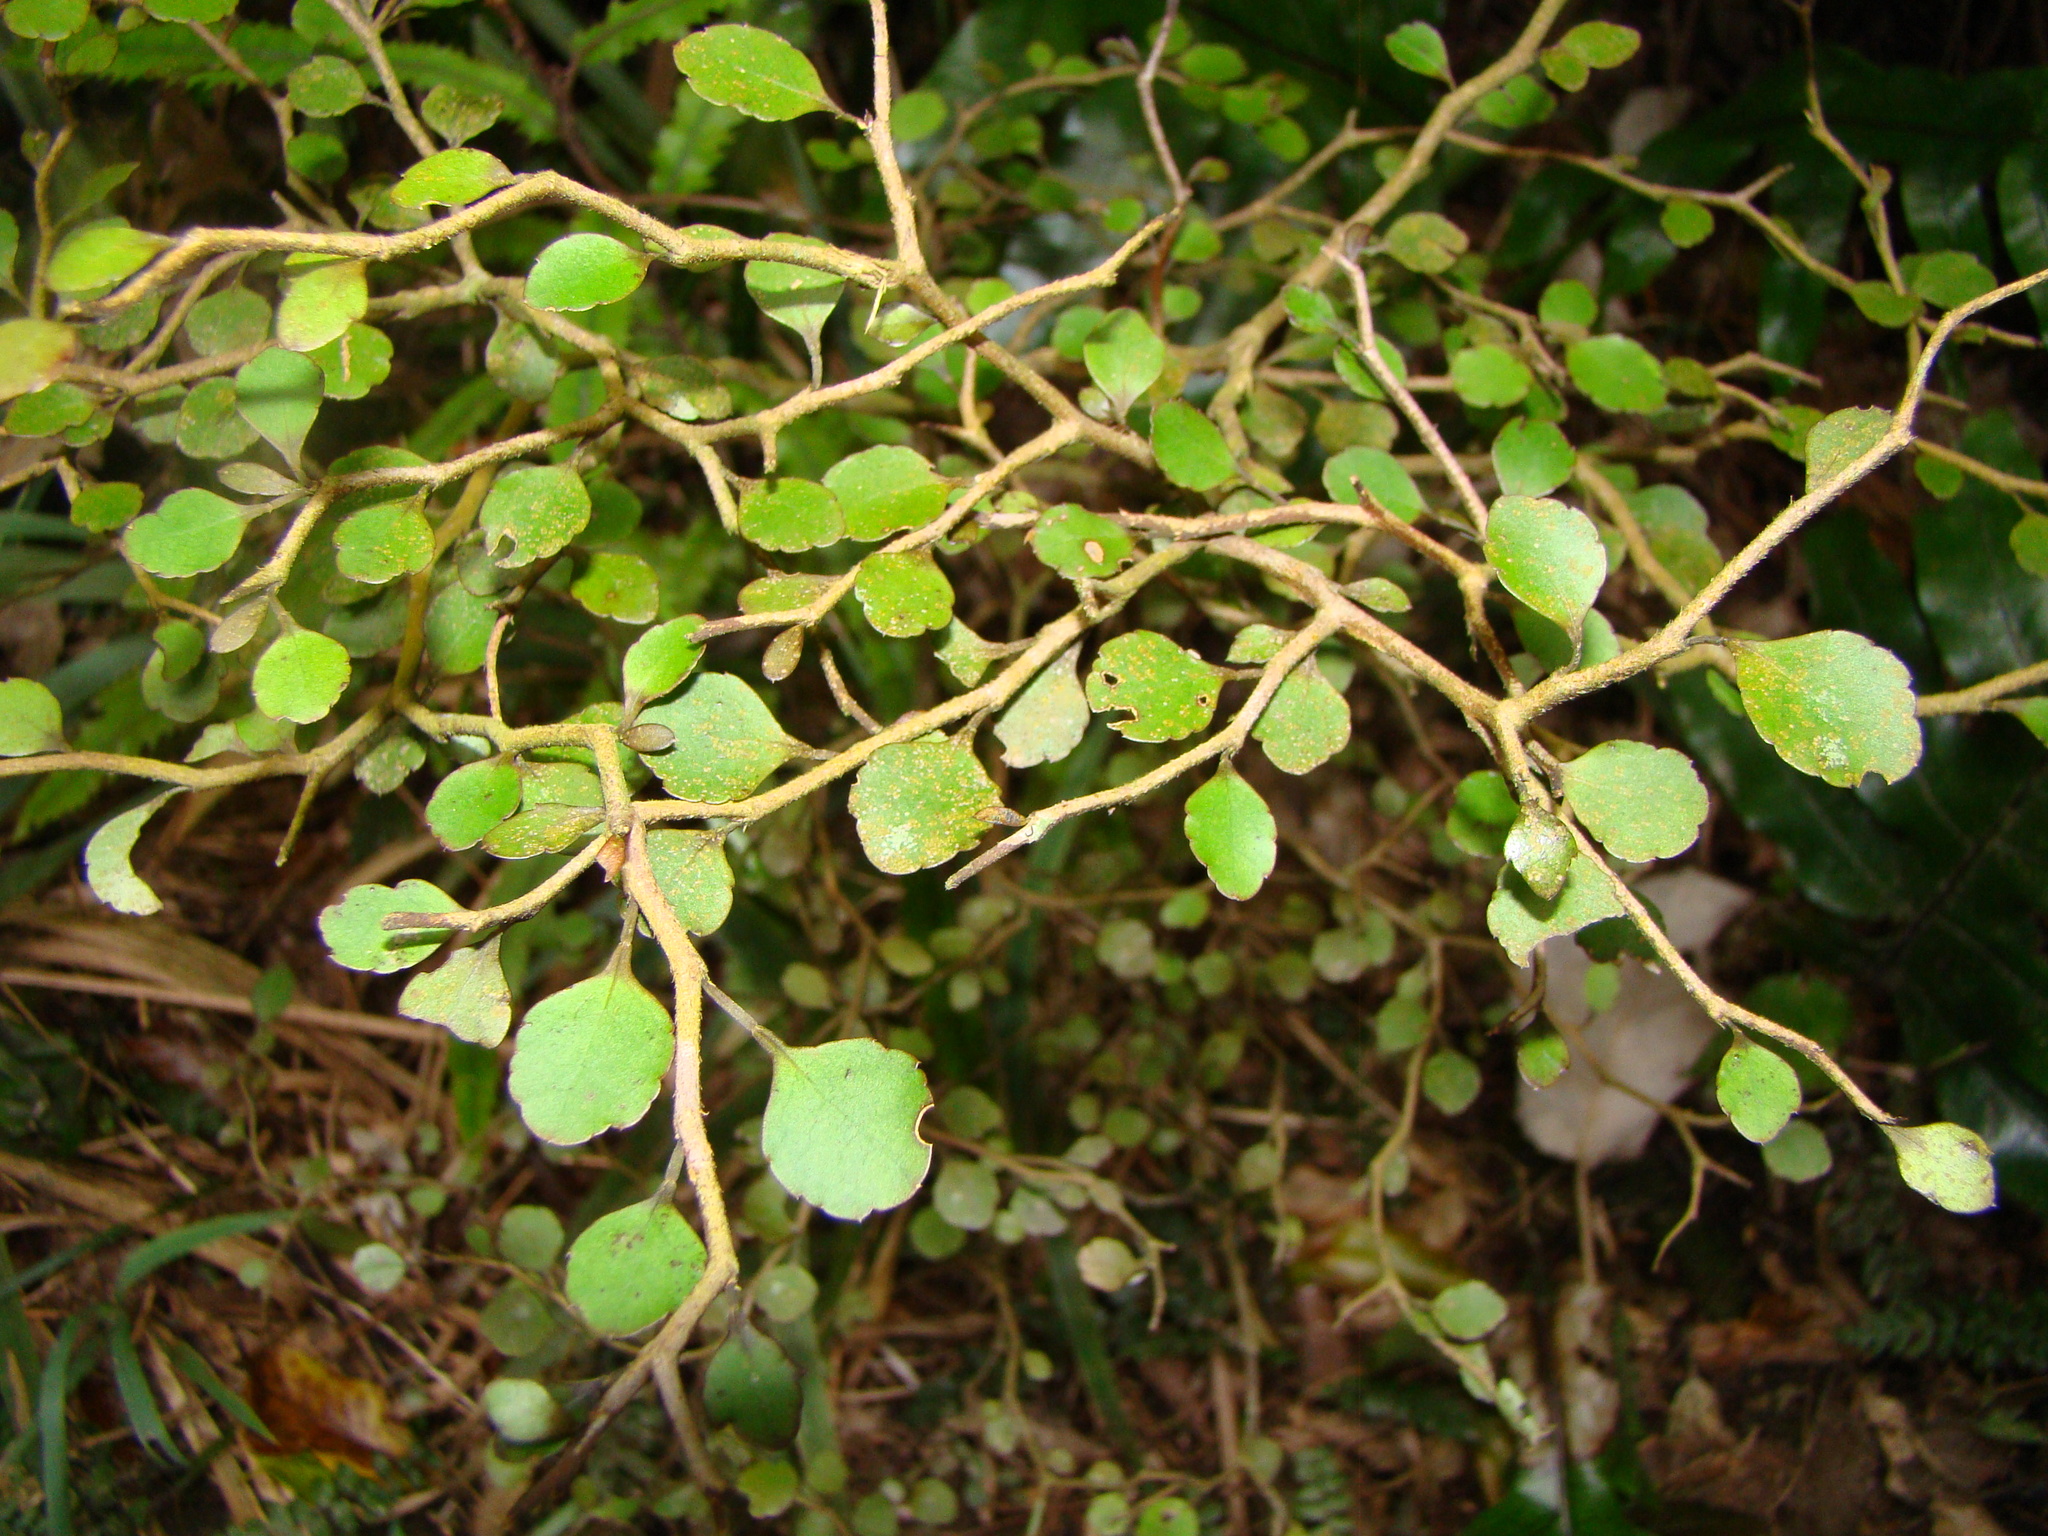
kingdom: Plantae
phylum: Tracheophyta
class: Magnoliopsida
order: Apiales
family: Araliaceae
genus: Raukaua
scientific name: Raukaua anomalus
